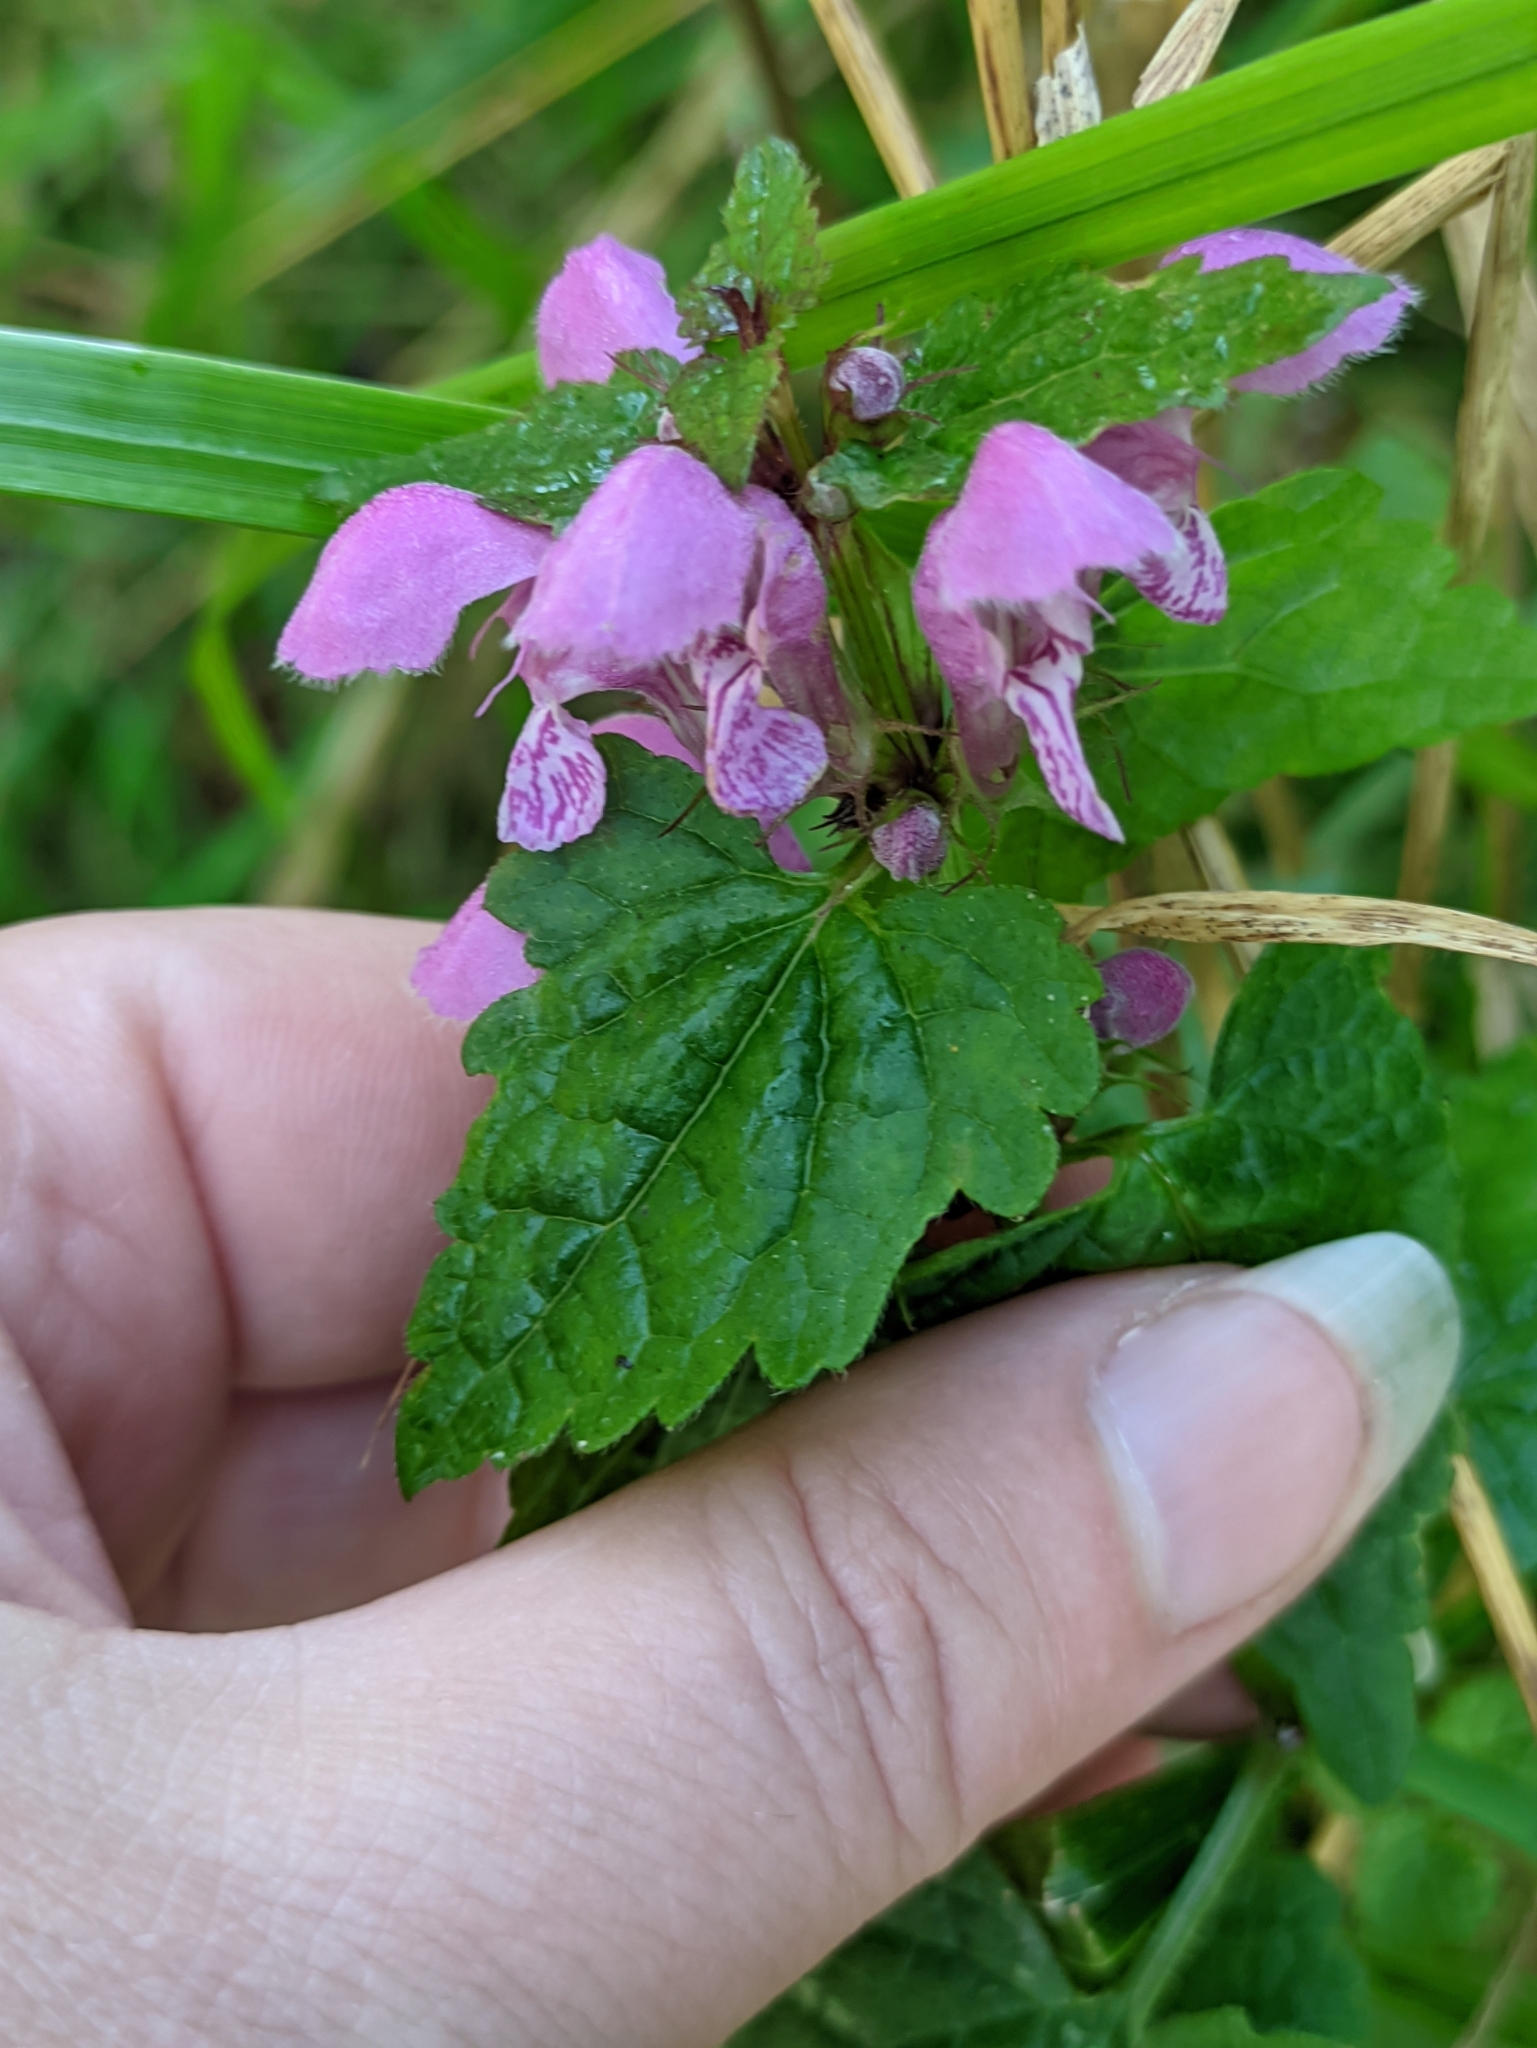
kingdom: Plantae
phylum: Tracheophyta
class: Magnoliopsida
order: Lamiales
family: Lamiaceae
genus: Lamium
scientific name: Lamium maculatum
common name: Spotted dead-nettle
